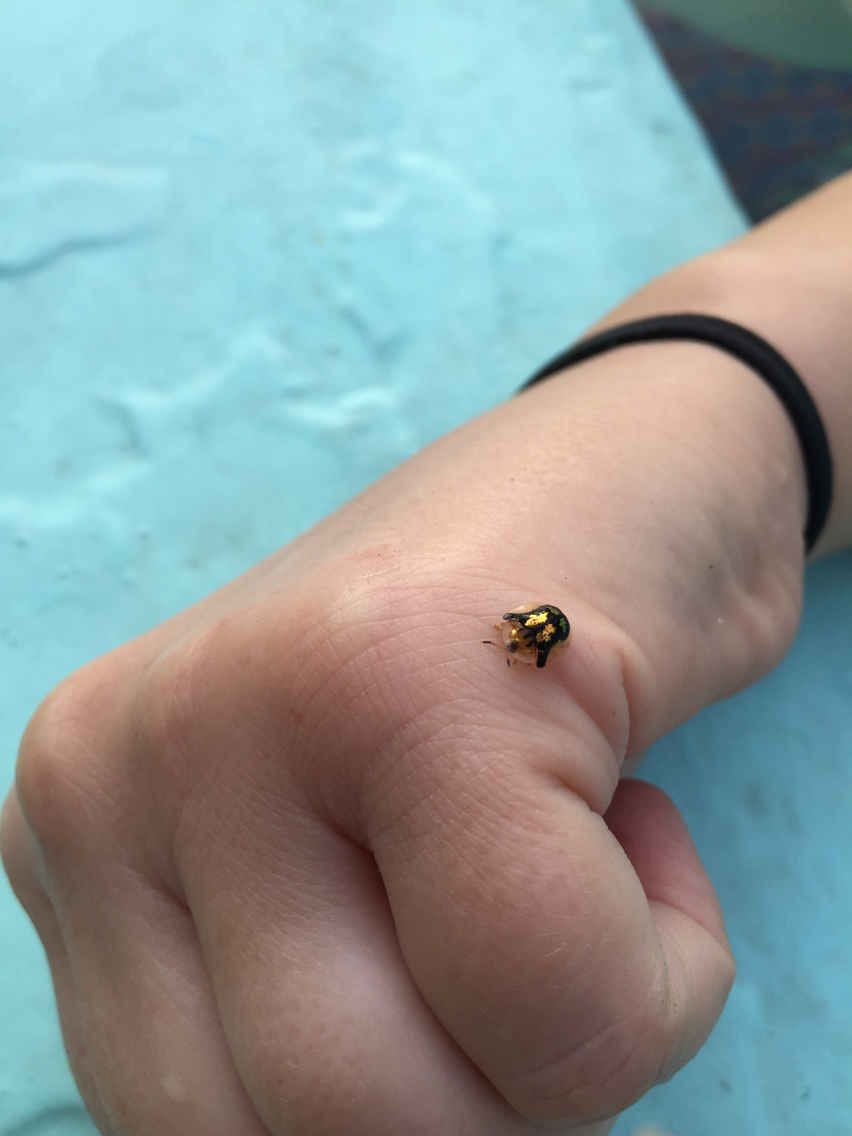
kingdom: Animalia
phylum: Arthropoda
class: Insecta
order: Coleoptera
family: Chrysomelidae
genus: Deloyala
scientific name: Deloyala guttata
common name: Mottled tortoise beetle
